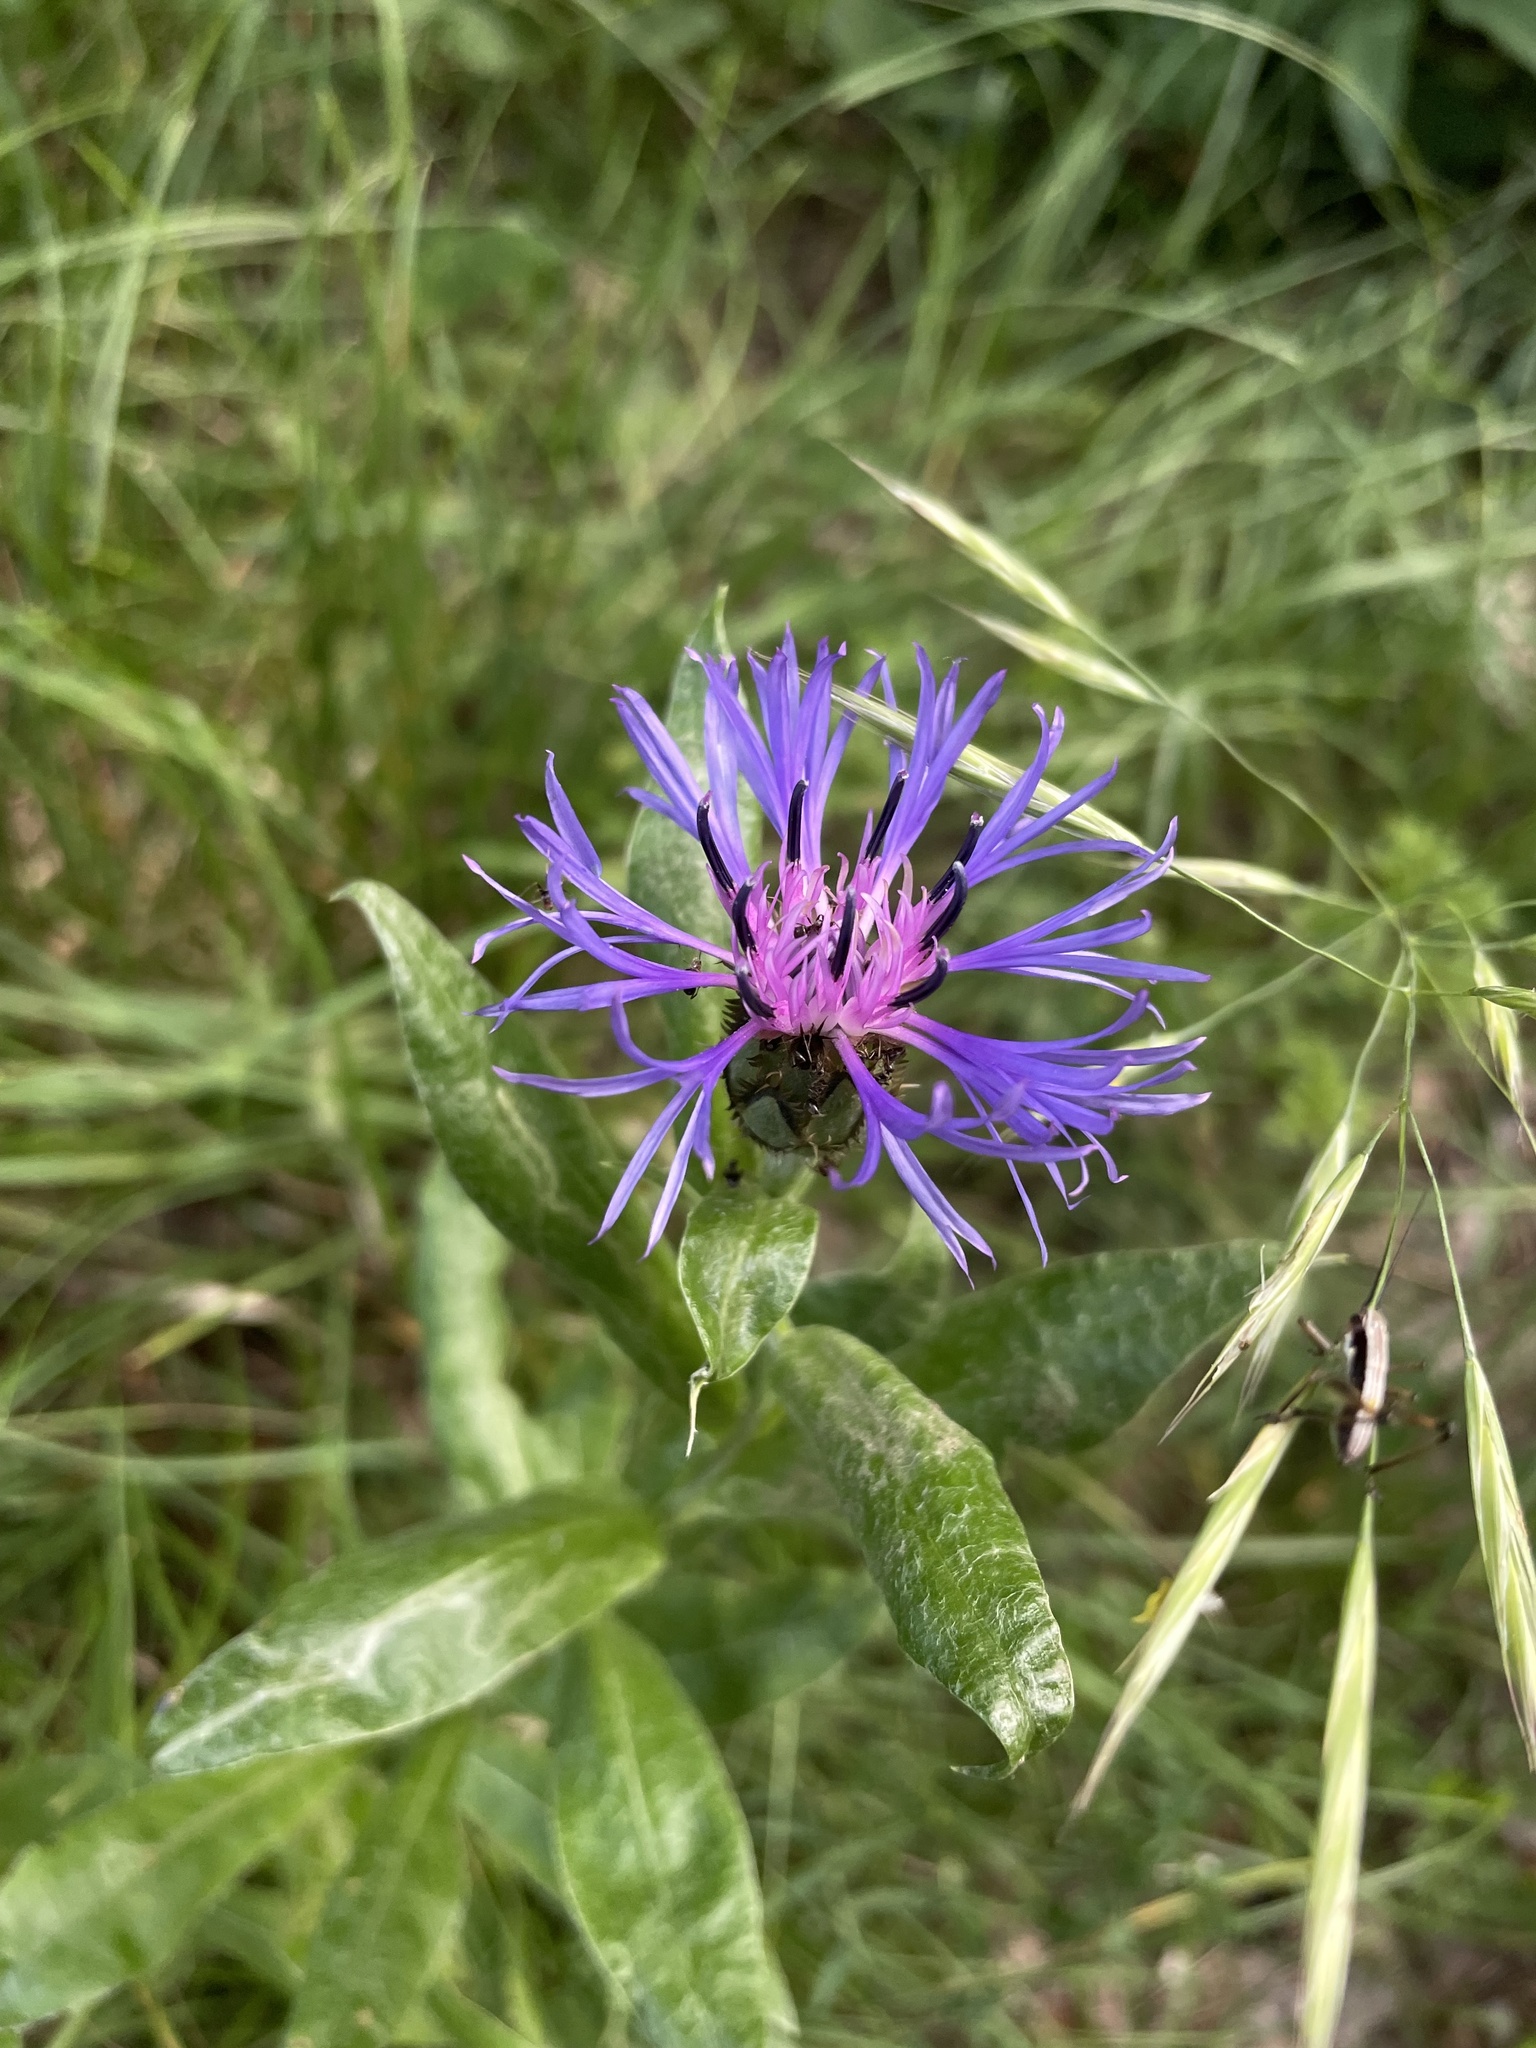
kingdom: Plantae
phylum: Tracheophyta
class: Magnoliopsida
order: Asterales
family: Asteraceae
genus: Centaurea
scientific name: Centaurea triumfettii
